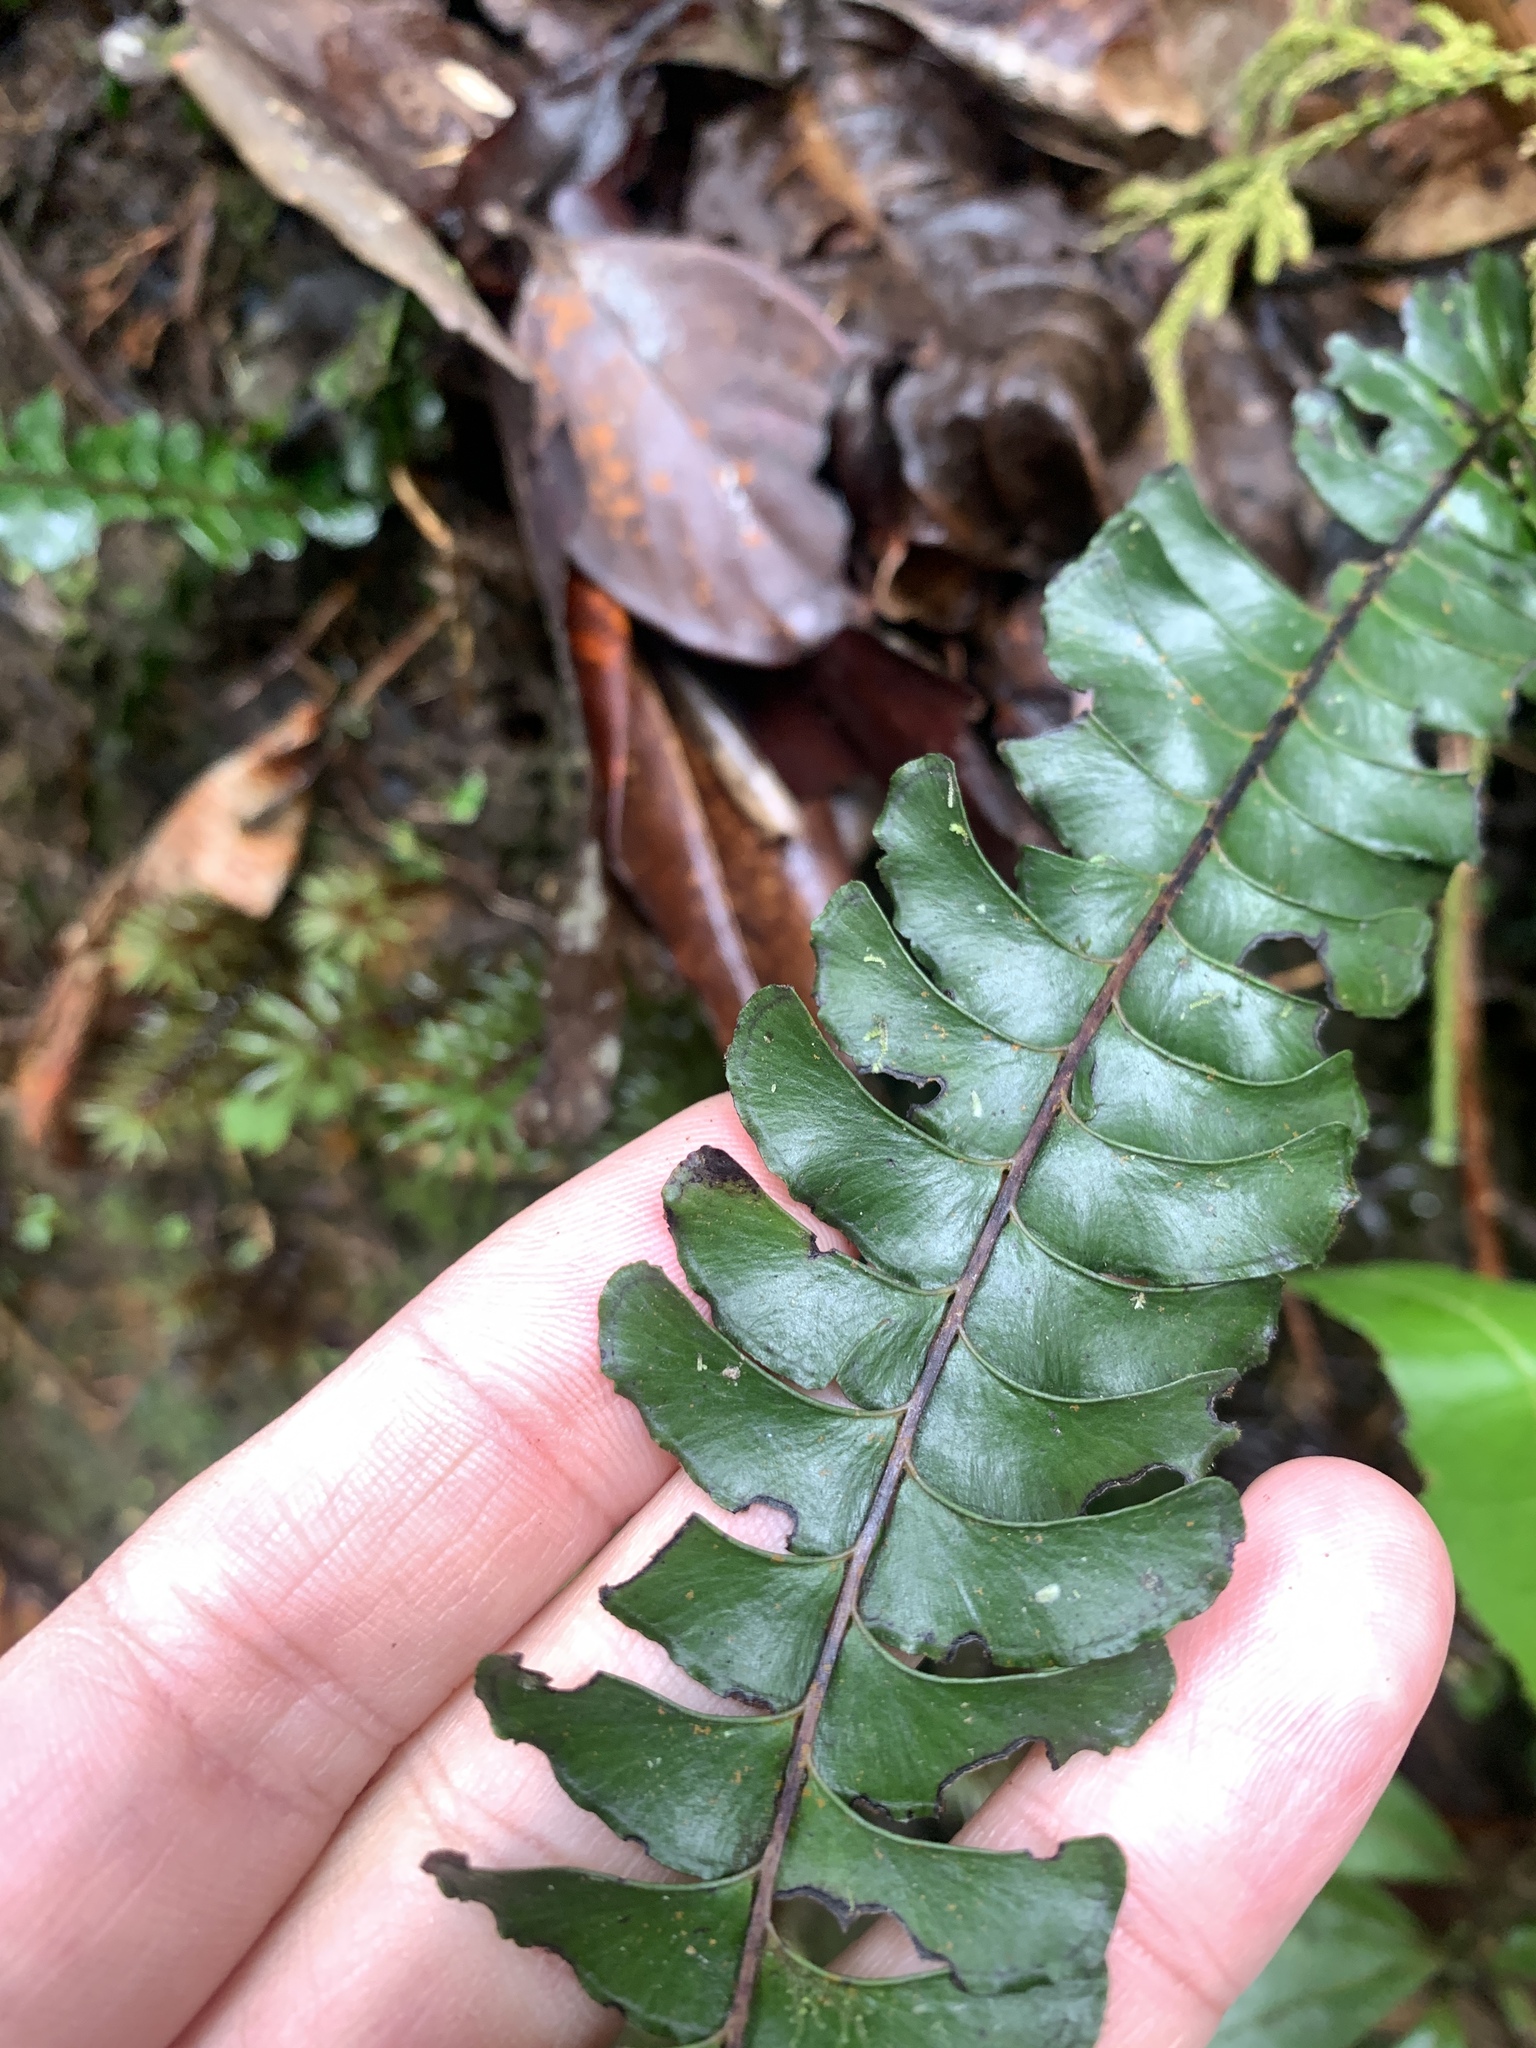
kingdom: Plantae
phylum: Tracheophyta
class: Polypodiopsida
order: Polypodiales
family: Lindsaeaceae
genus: Lindsaea
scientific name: Lindsaea oblanceolata
